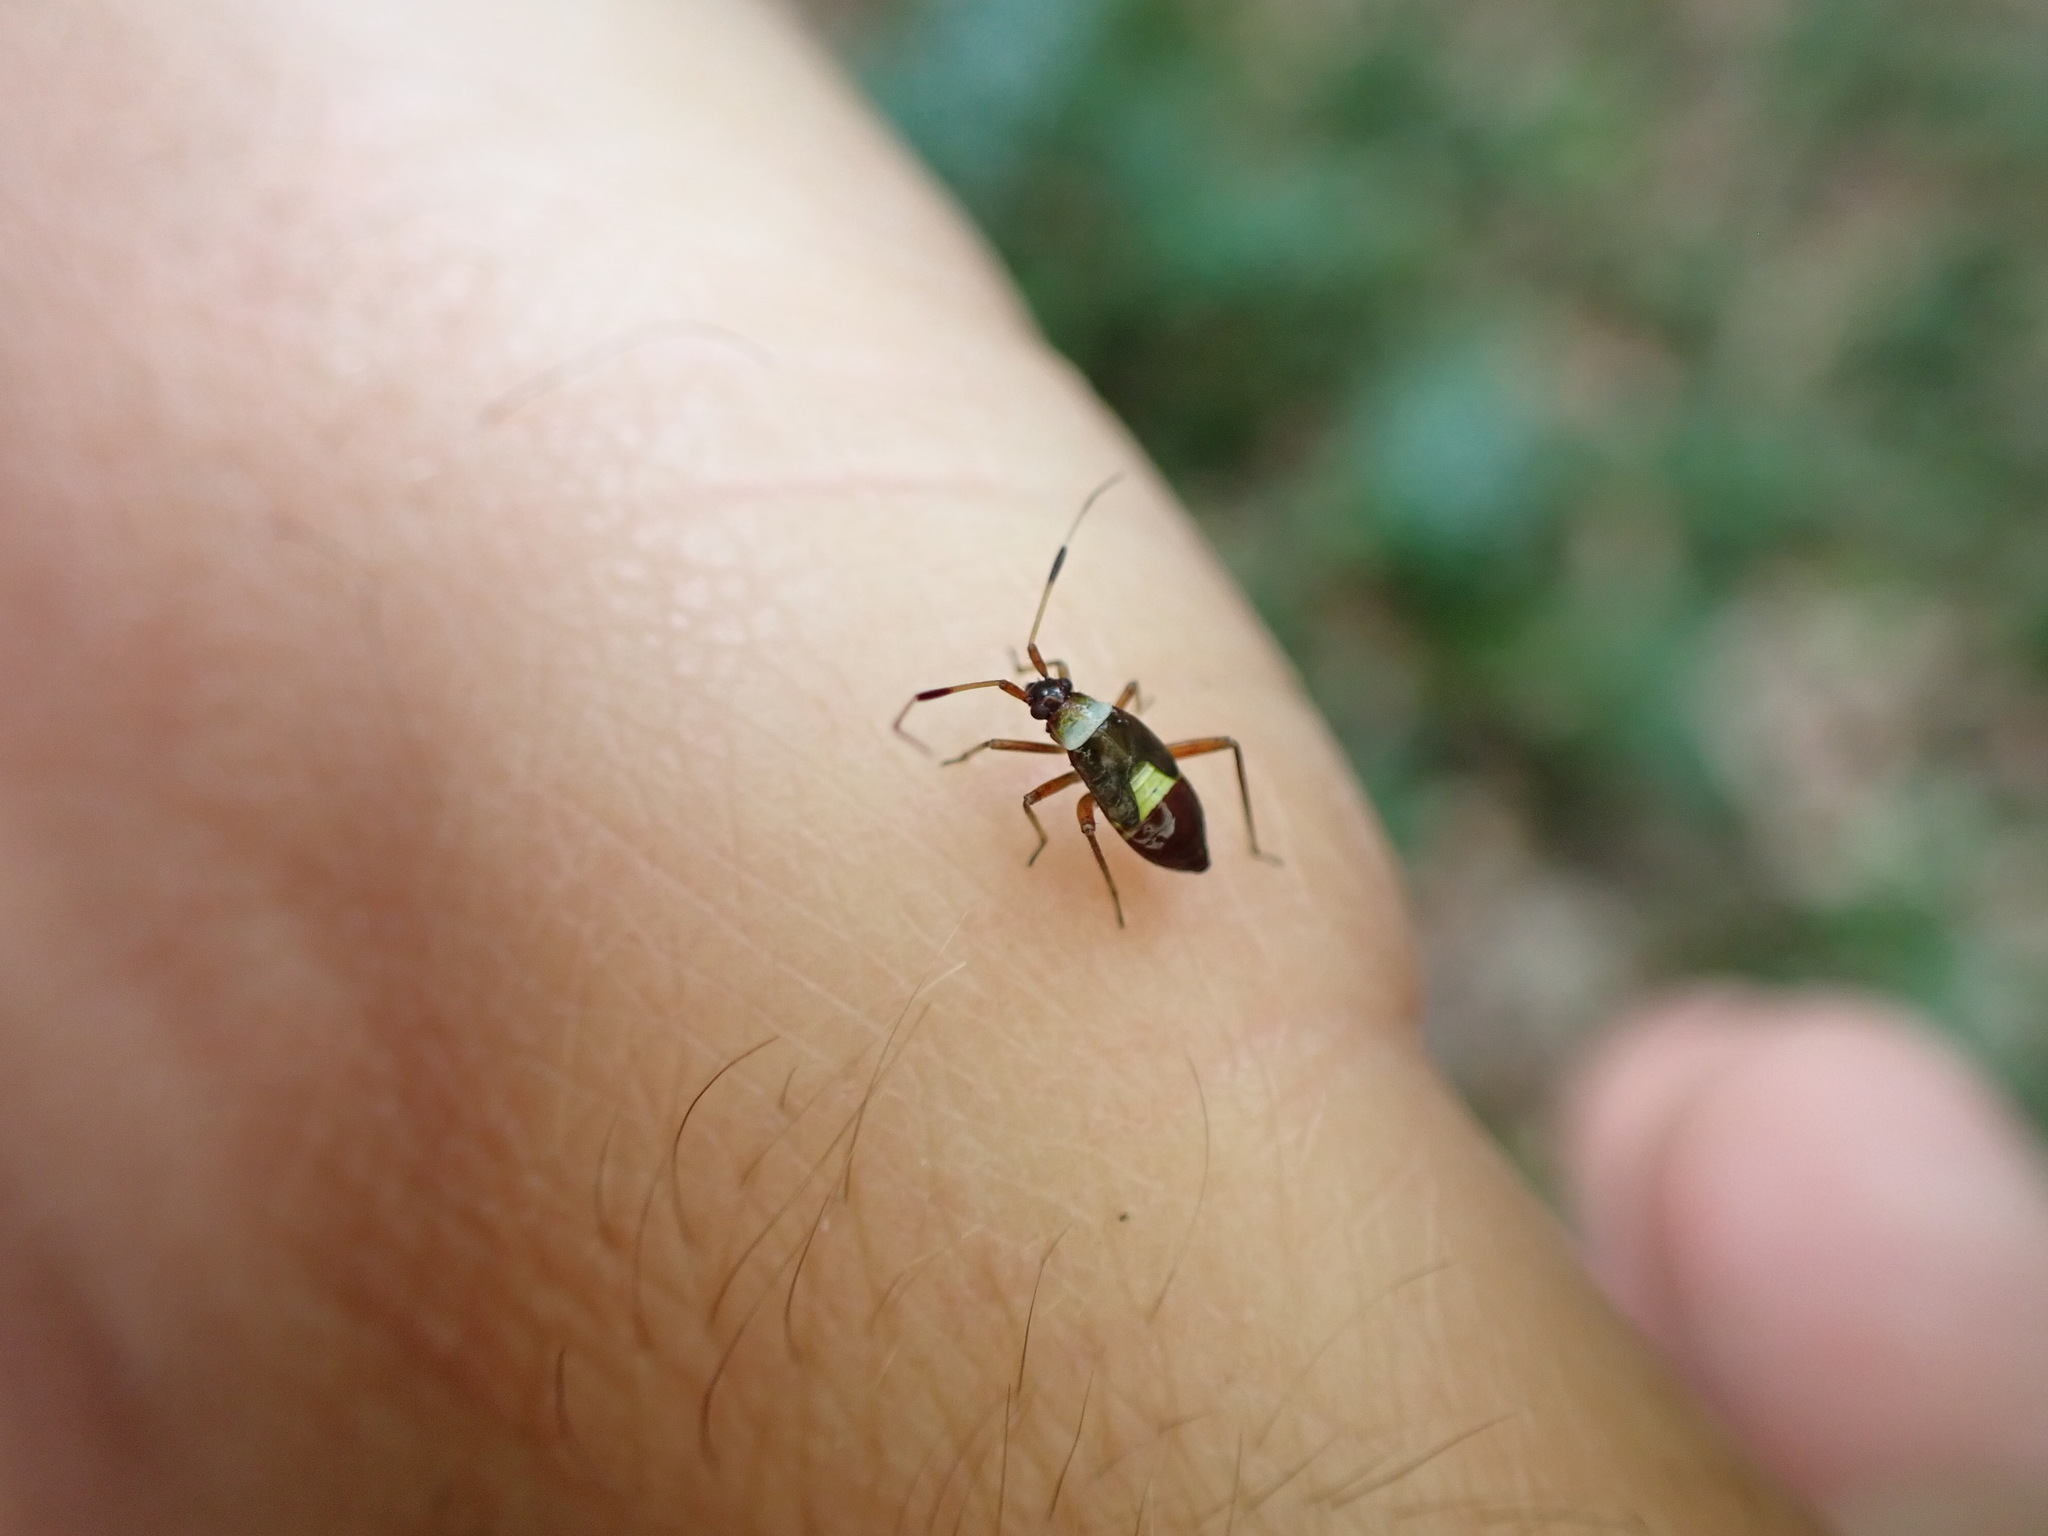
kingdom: Animalia
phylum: Arthropoda
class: Insecta
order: Hemiptera
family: Miridae
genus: Closterotomus
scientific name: Closterotomus biclavatus
